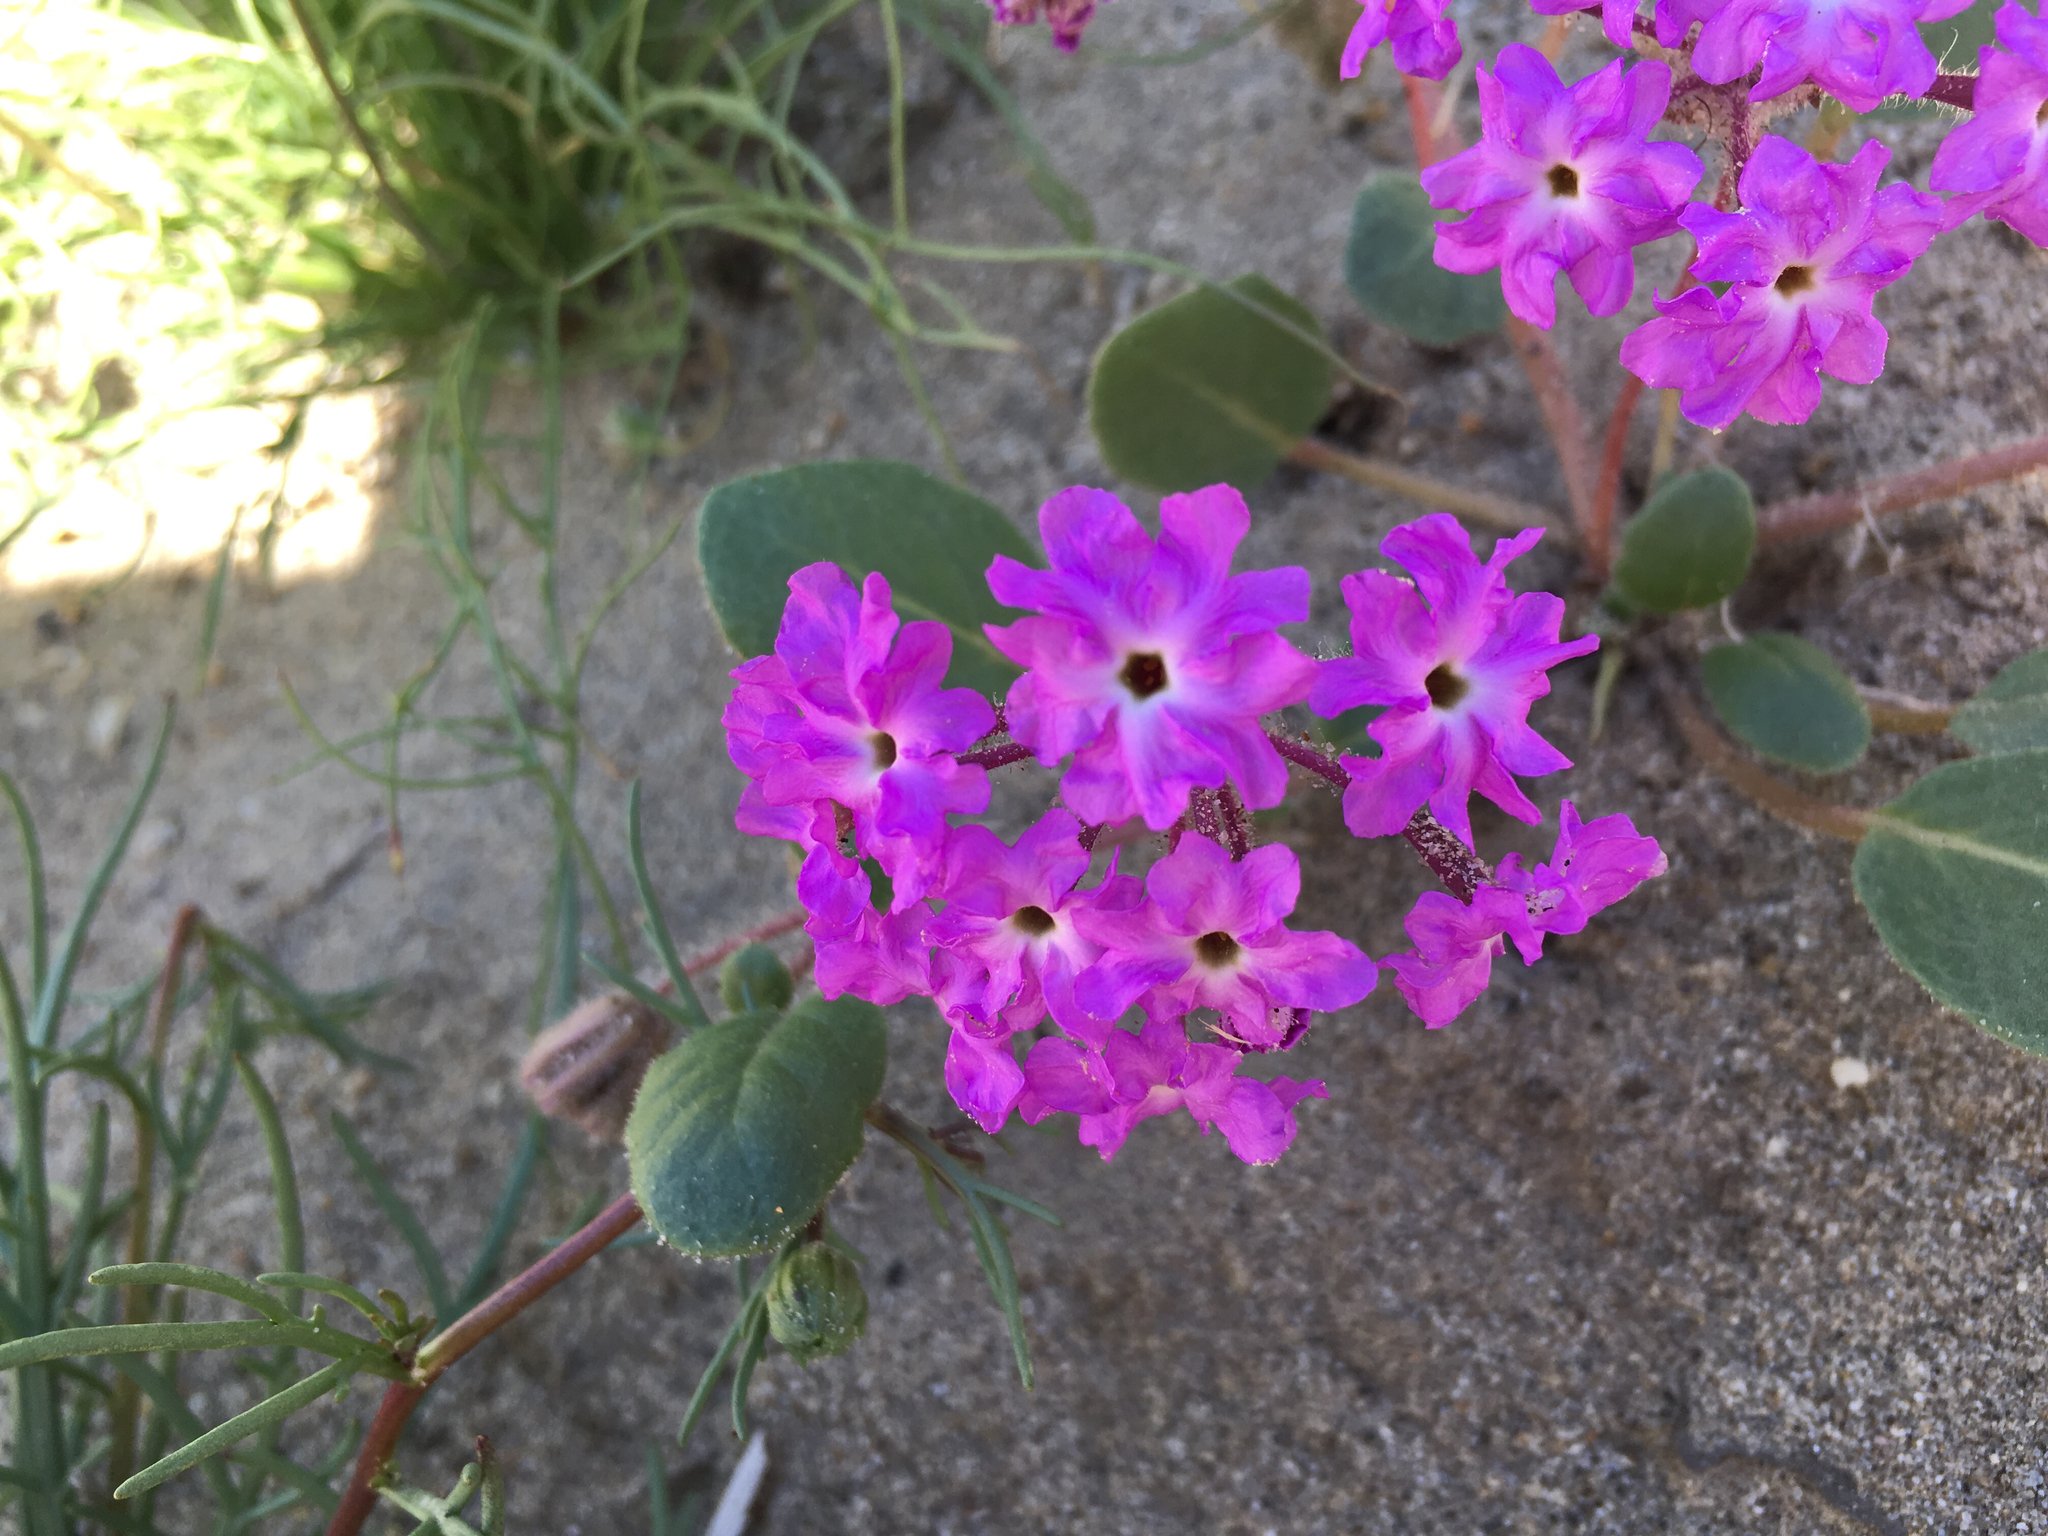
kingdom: Plantae
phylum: Tracheophyta
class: Magnoliopsida
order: Caryophyllales
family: Nyctaginaceae
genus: Abronia
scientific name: Abronia villosa
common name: Desert sand-verbena
